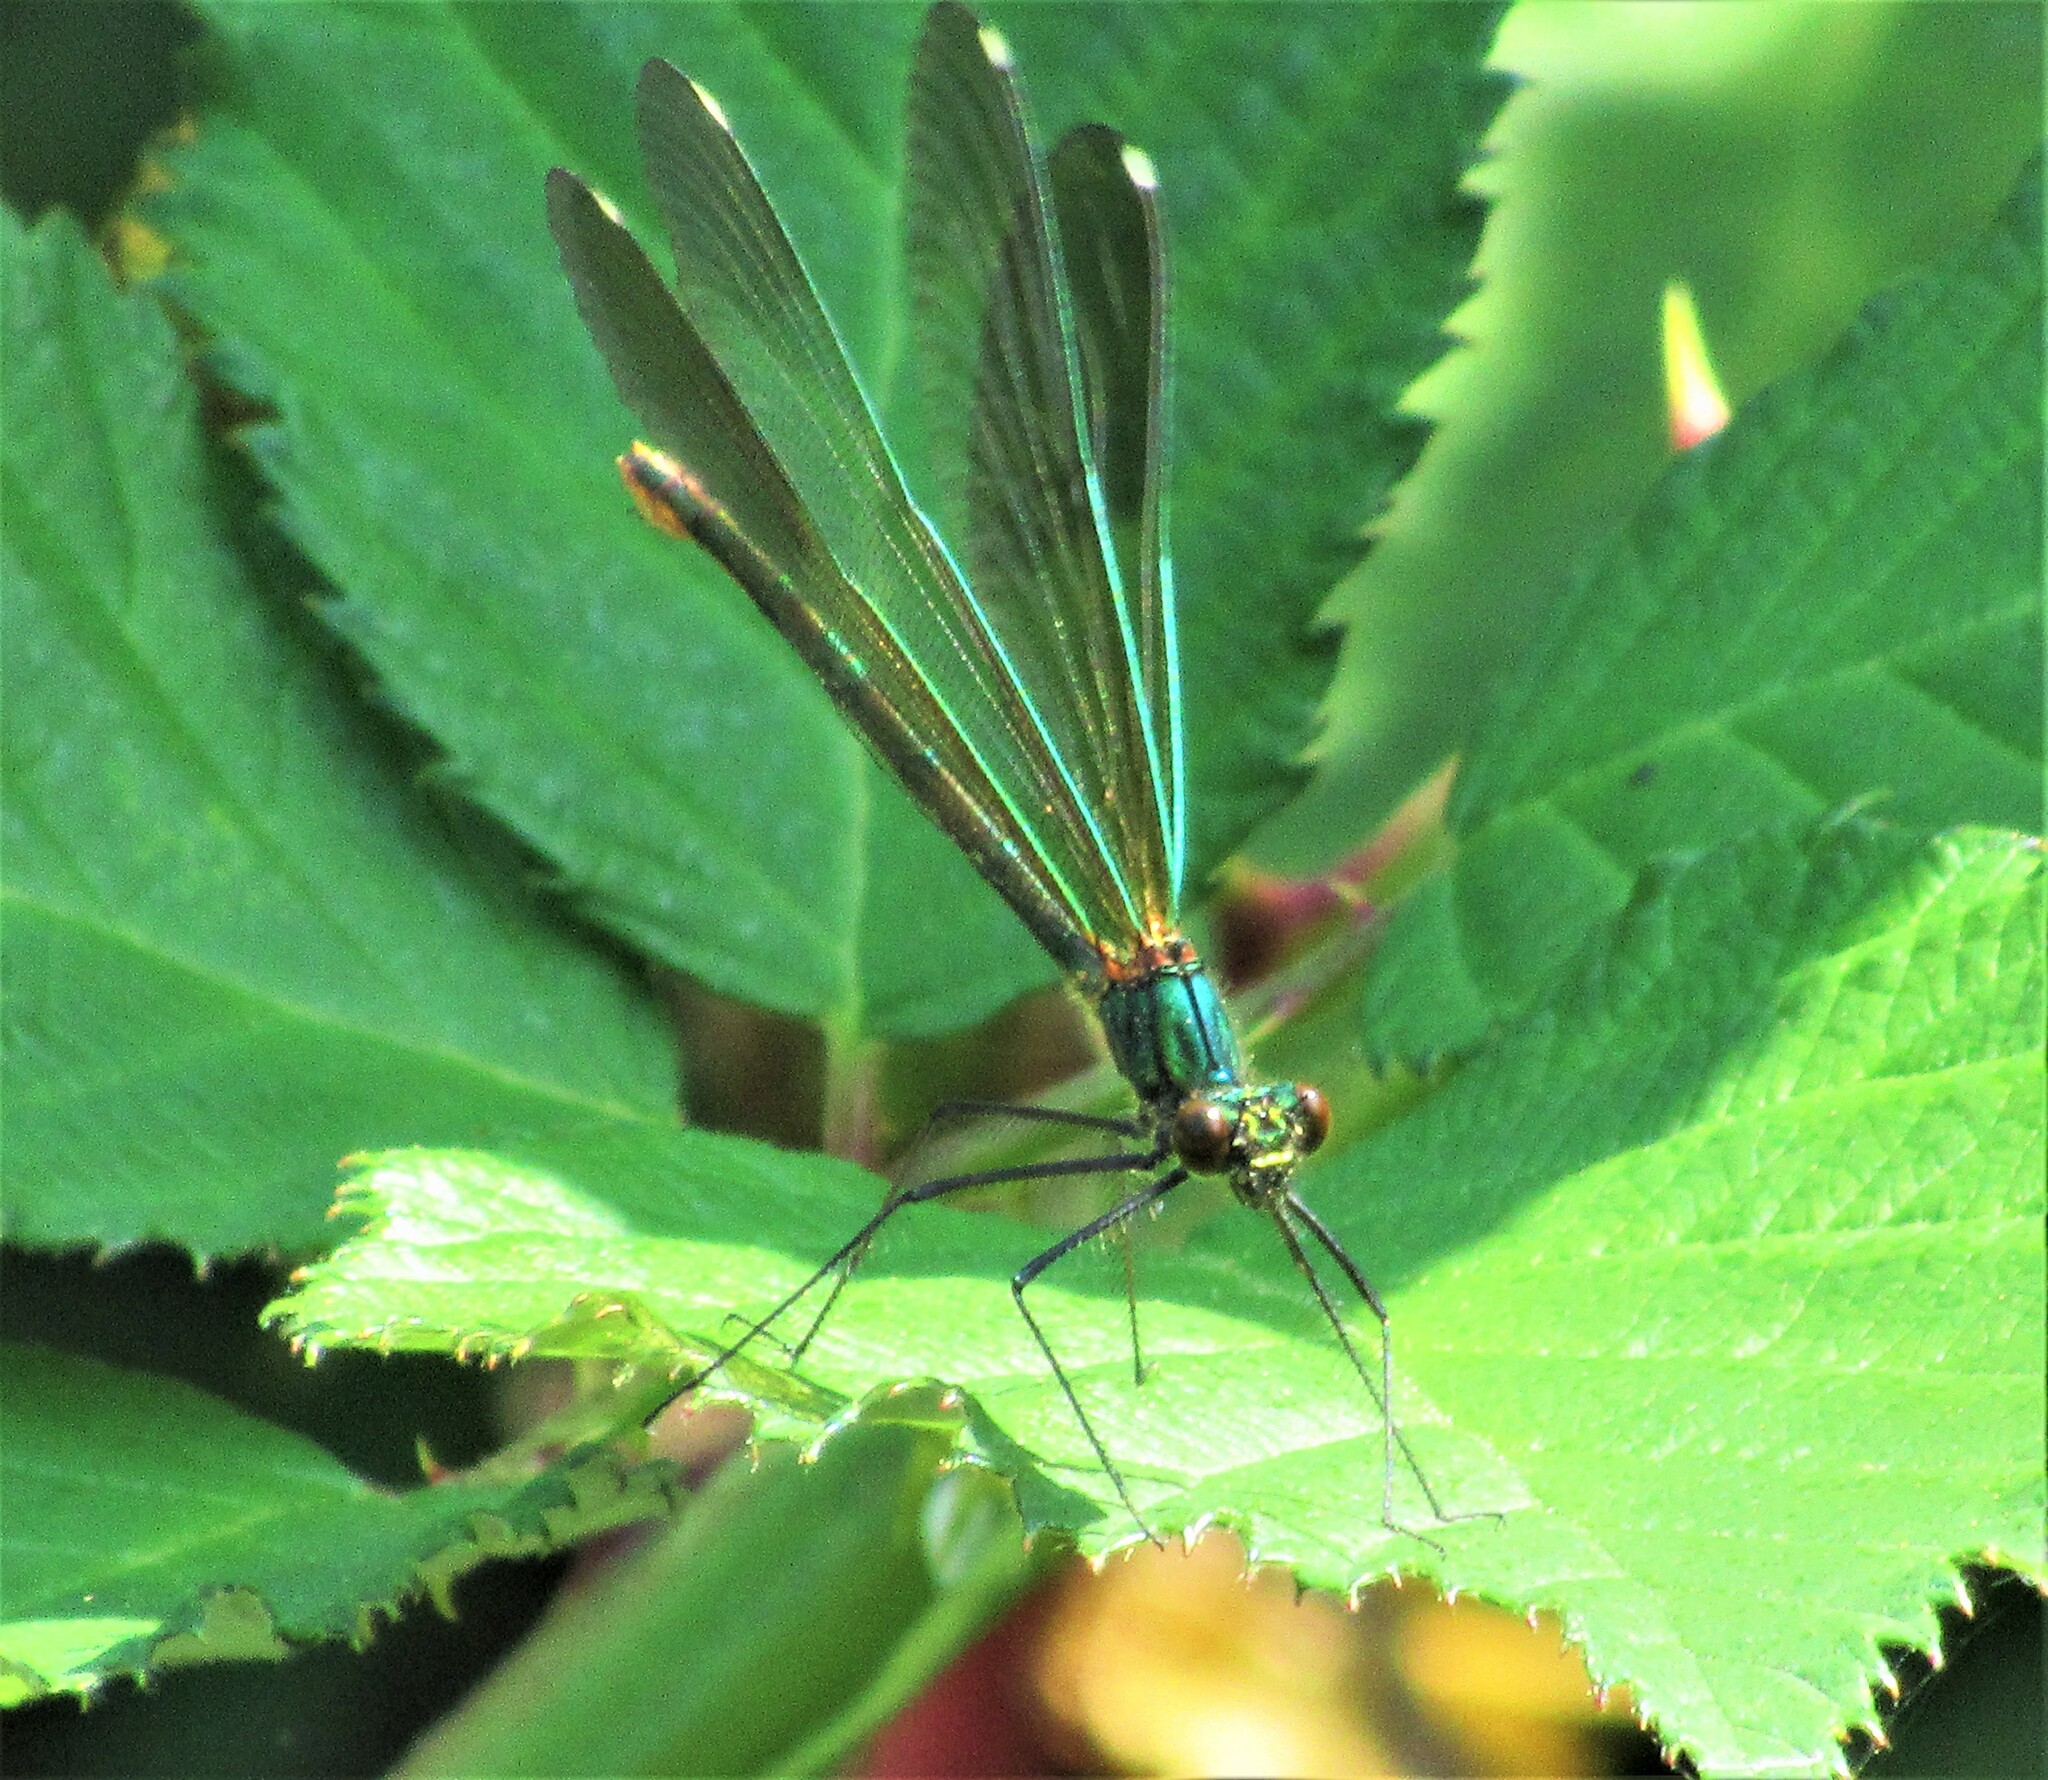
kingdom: Animalia
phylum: Arthropoda
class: Insecta
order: Odonata
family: Calopterygidae
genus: Calopteryx
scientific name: Calopteryx aequabilis
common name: River jewelwing
